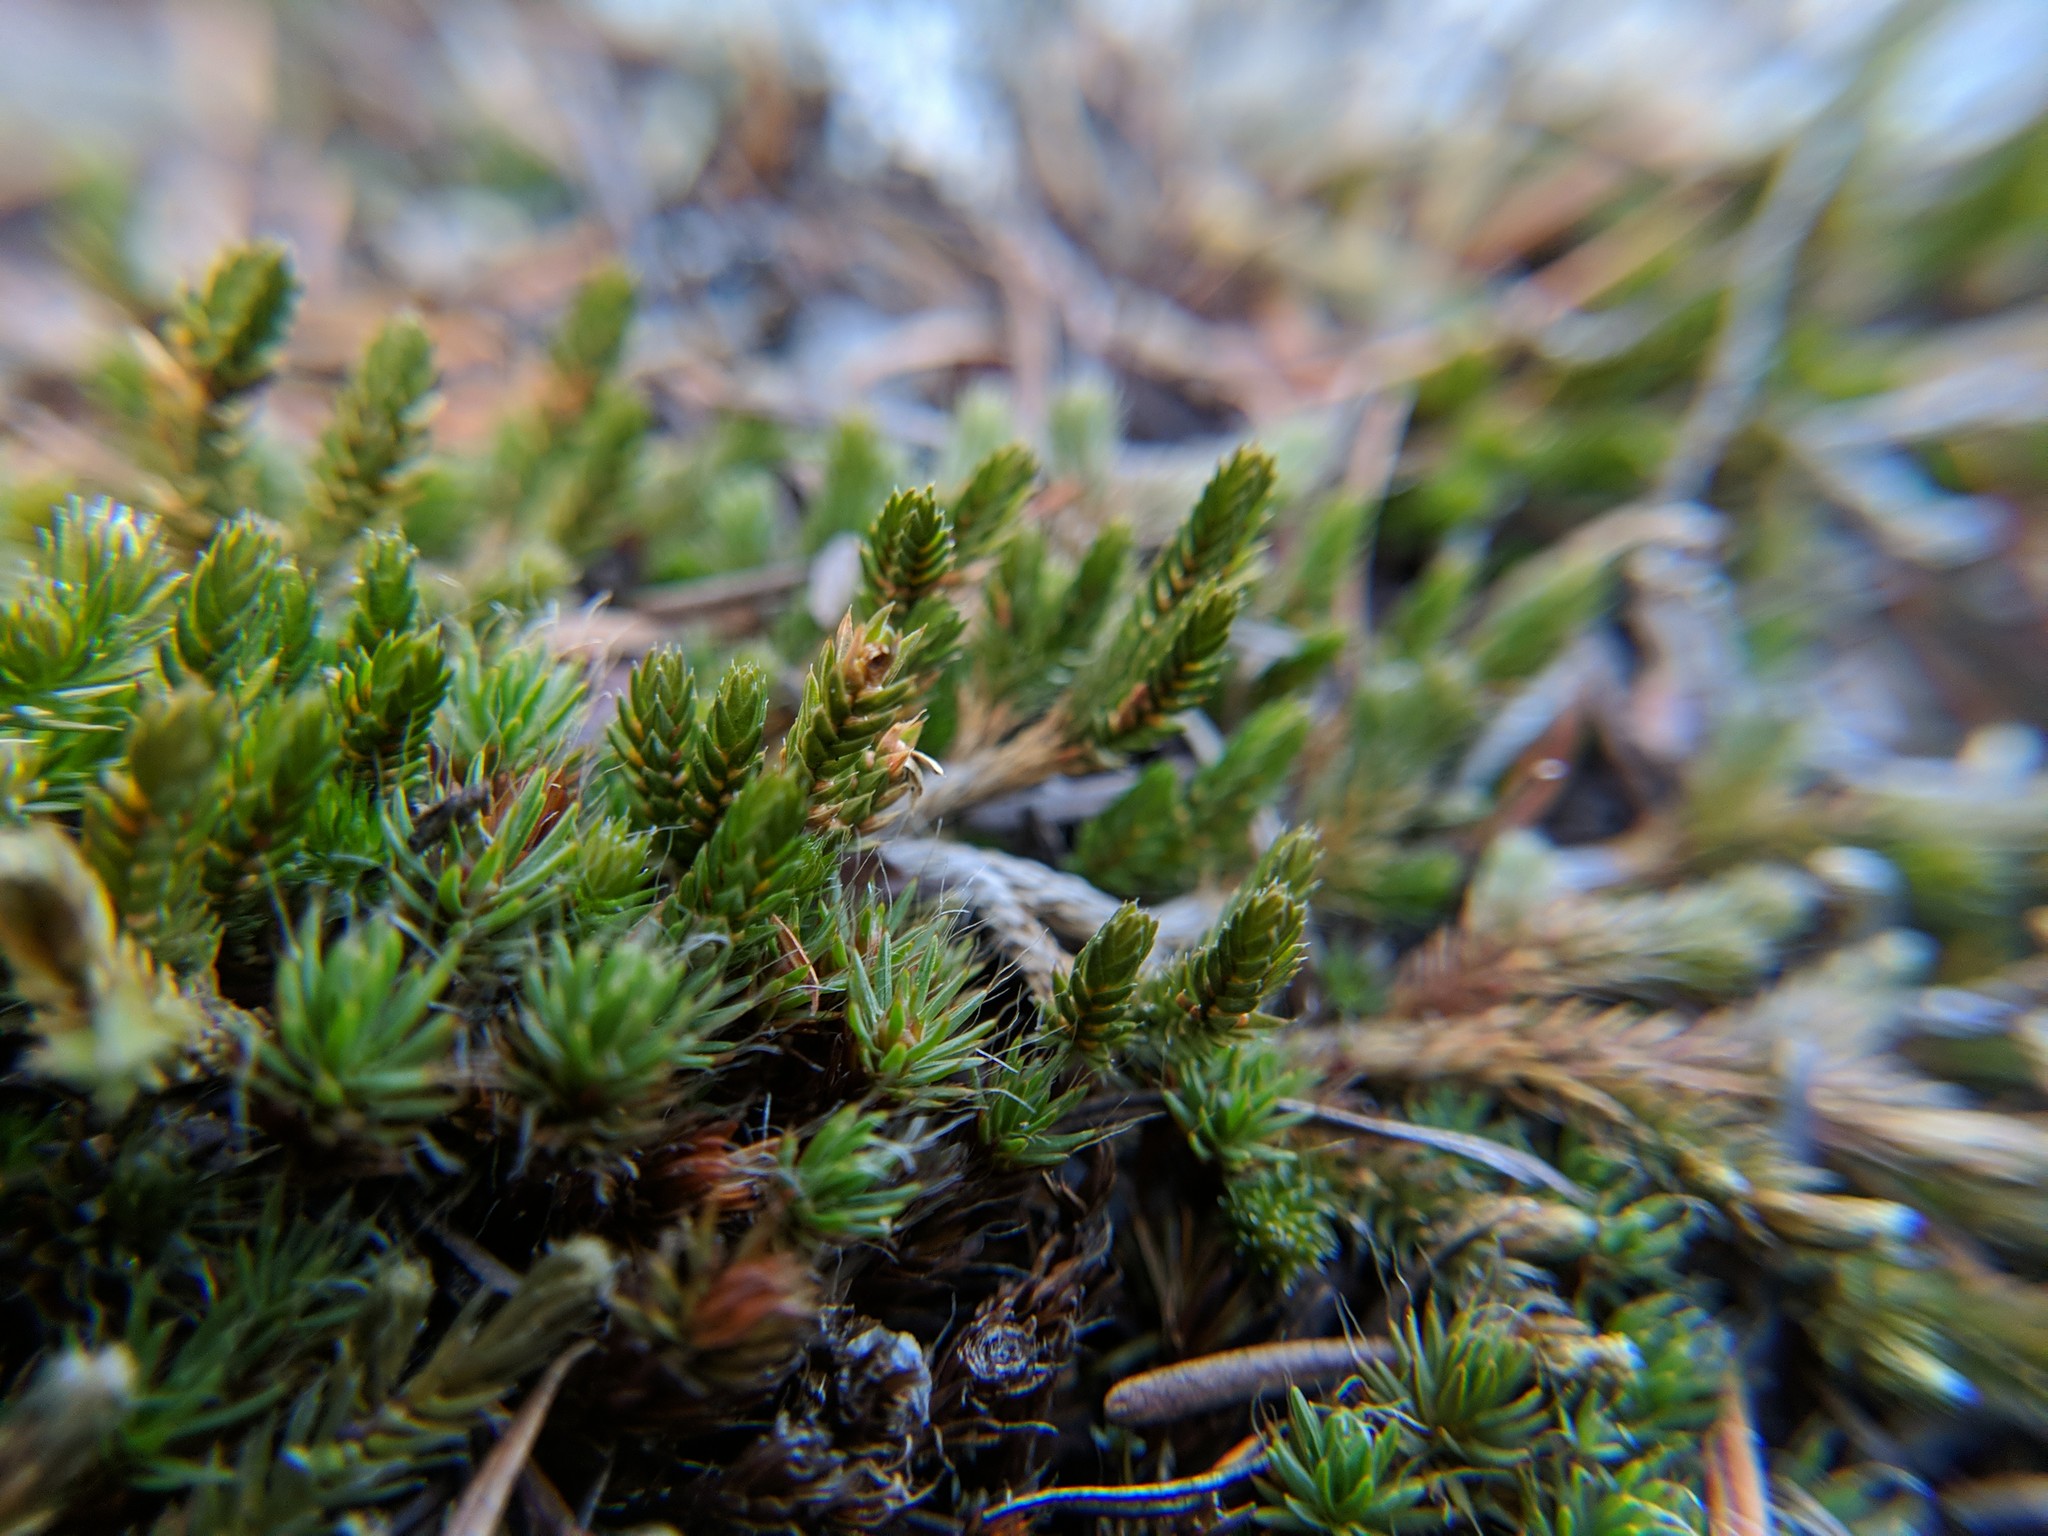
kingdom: Plantae
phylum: Tracheophyta
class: Lycopodiopsida
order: Selaginellales
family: Selaginellaceae
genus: Selaginella
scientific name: Selaginella wallacei
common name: Wallace's selaginella
